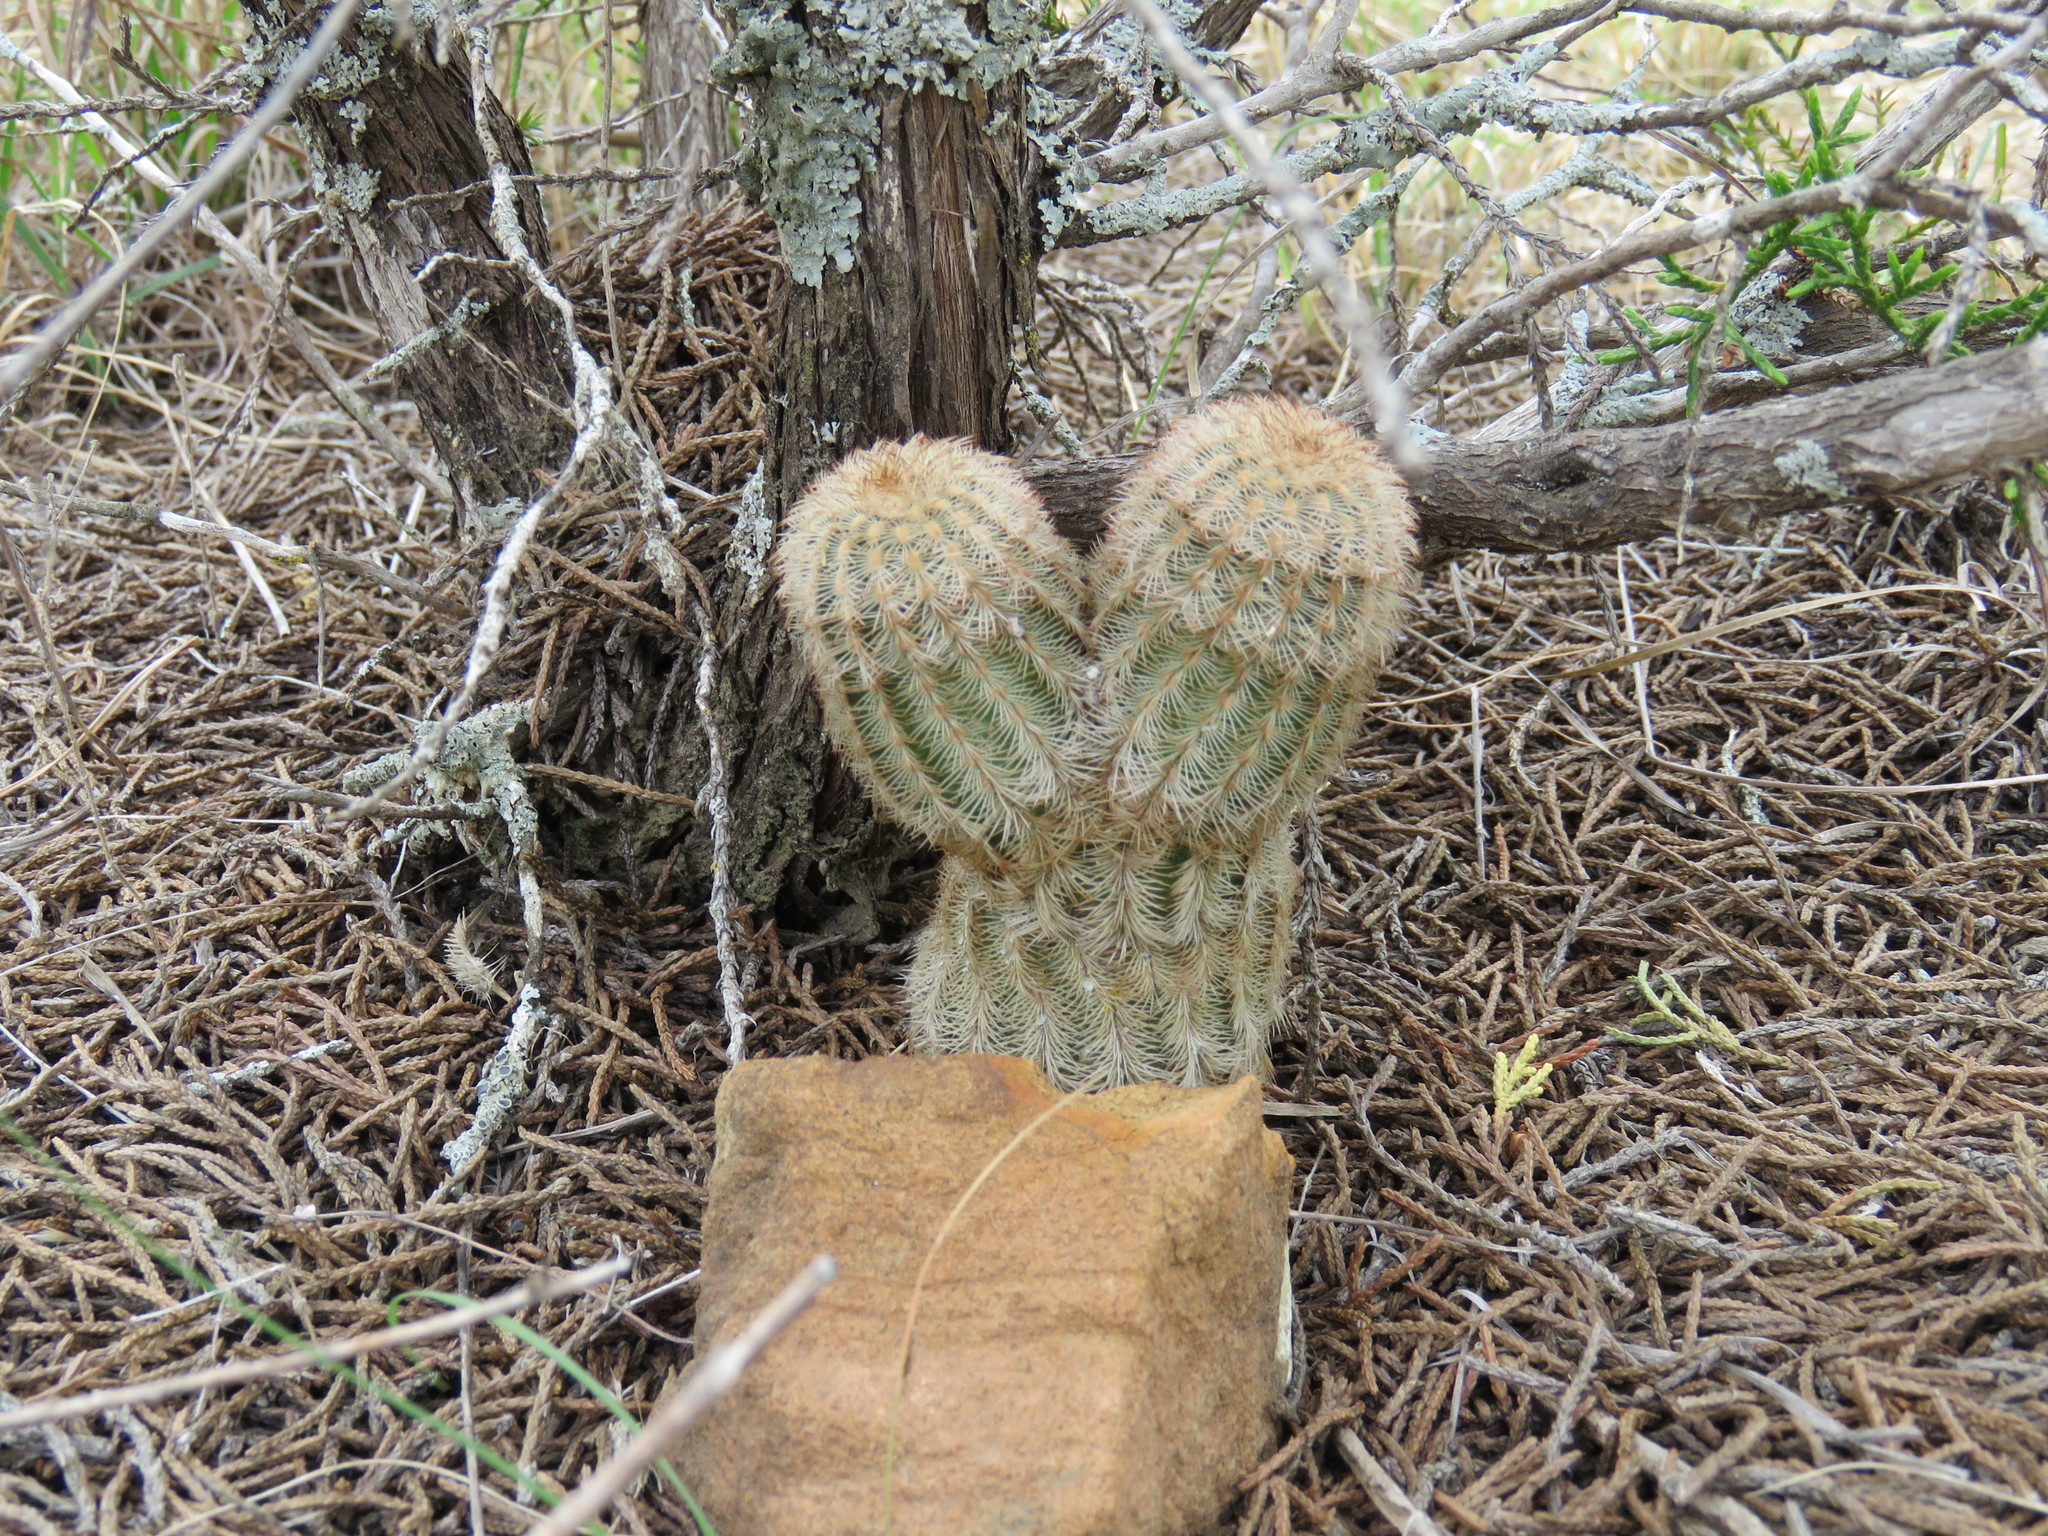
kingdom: Plantae
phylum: Tracheophyta
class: Magnoliopsida
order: Caryophyllales
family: Cactaceae
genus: Echinocereus
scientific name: Echinocereus reichenbachii
